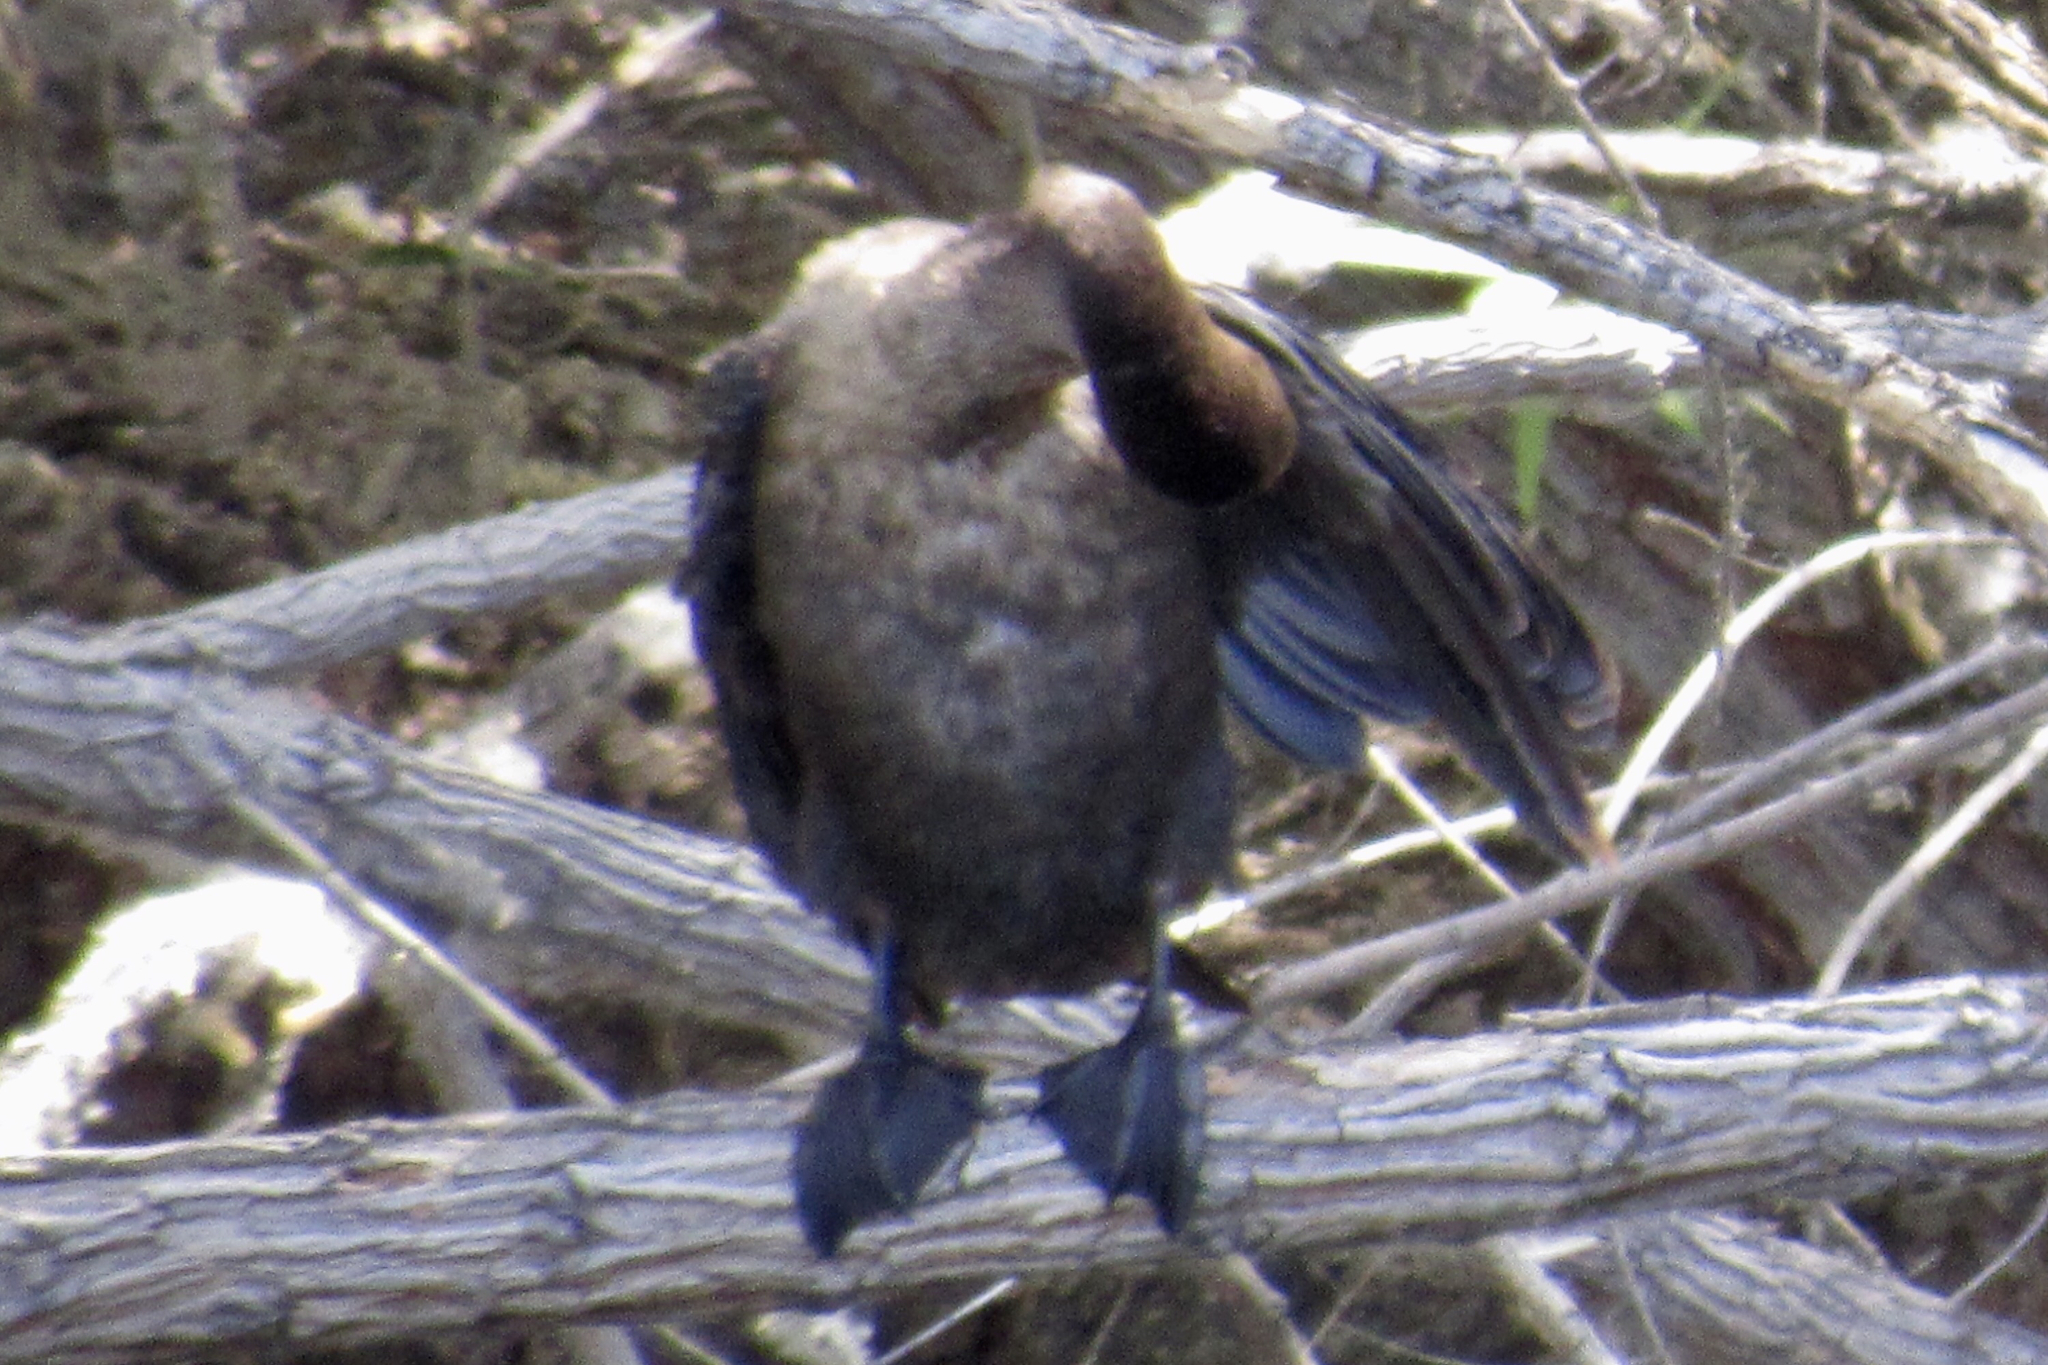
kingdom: Animalia
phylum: Chordata
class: Aves
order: Suliformes
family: Phalacrocoracidae
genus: Phalacrocorax
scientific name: Phalacrocorax brasilianus
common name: Neotropic cormorant
